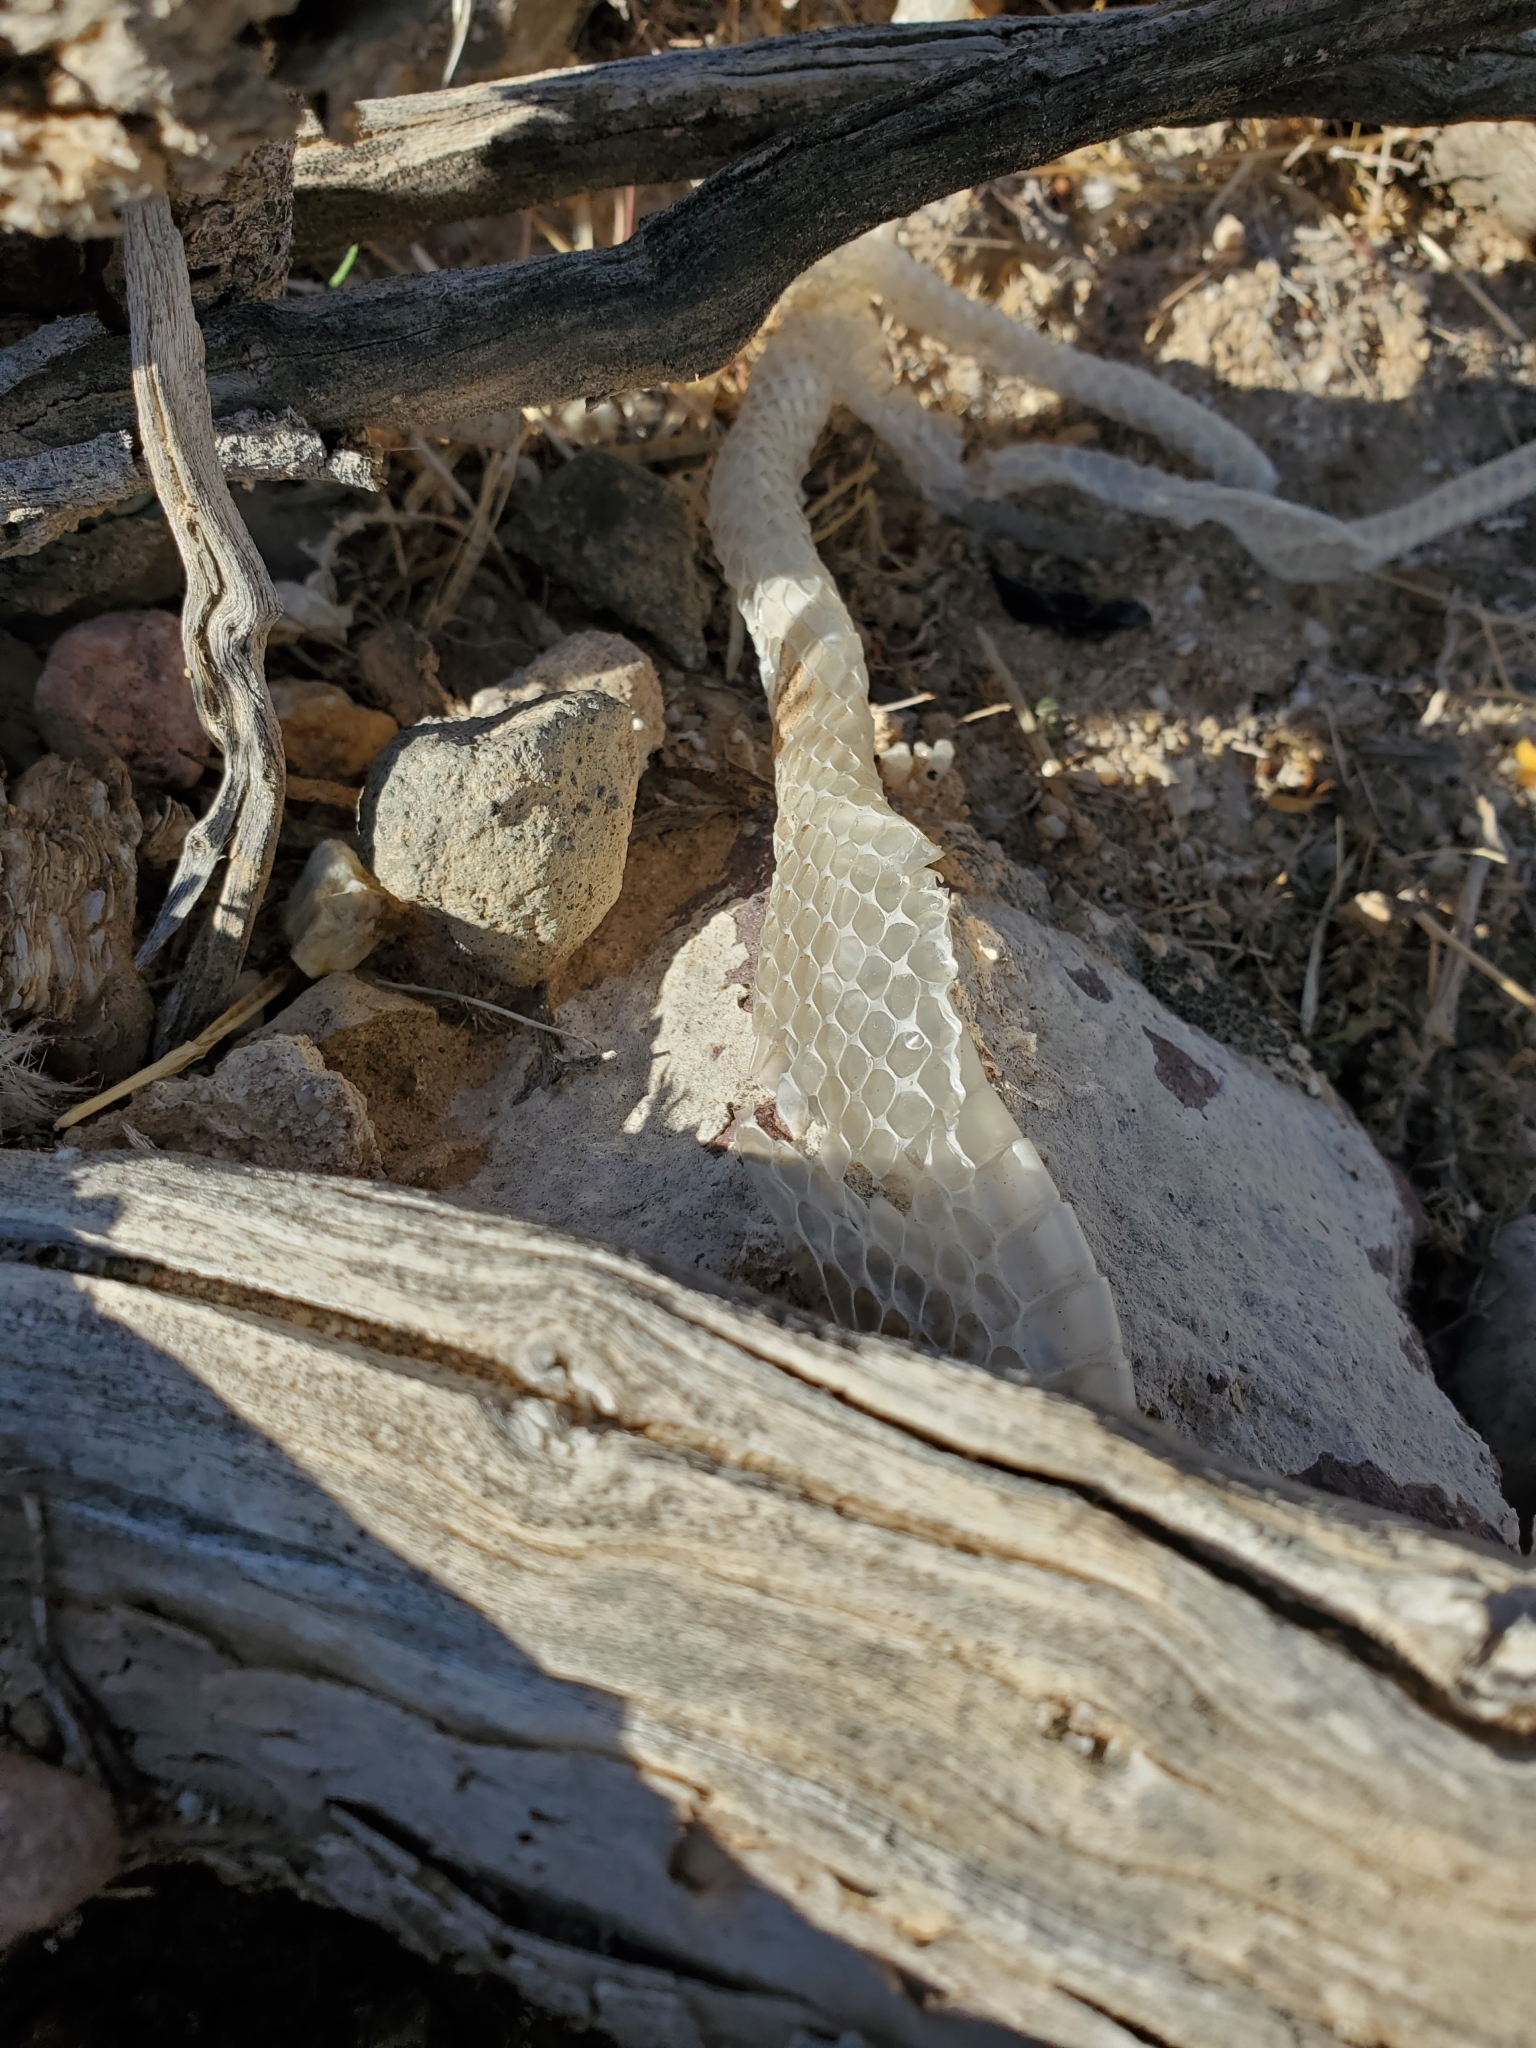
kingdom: Animalia
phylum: Chordata
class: Squamata
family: Colubridae
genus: Masticophis
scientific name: Masticophis flagellum
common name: Coachwhip
